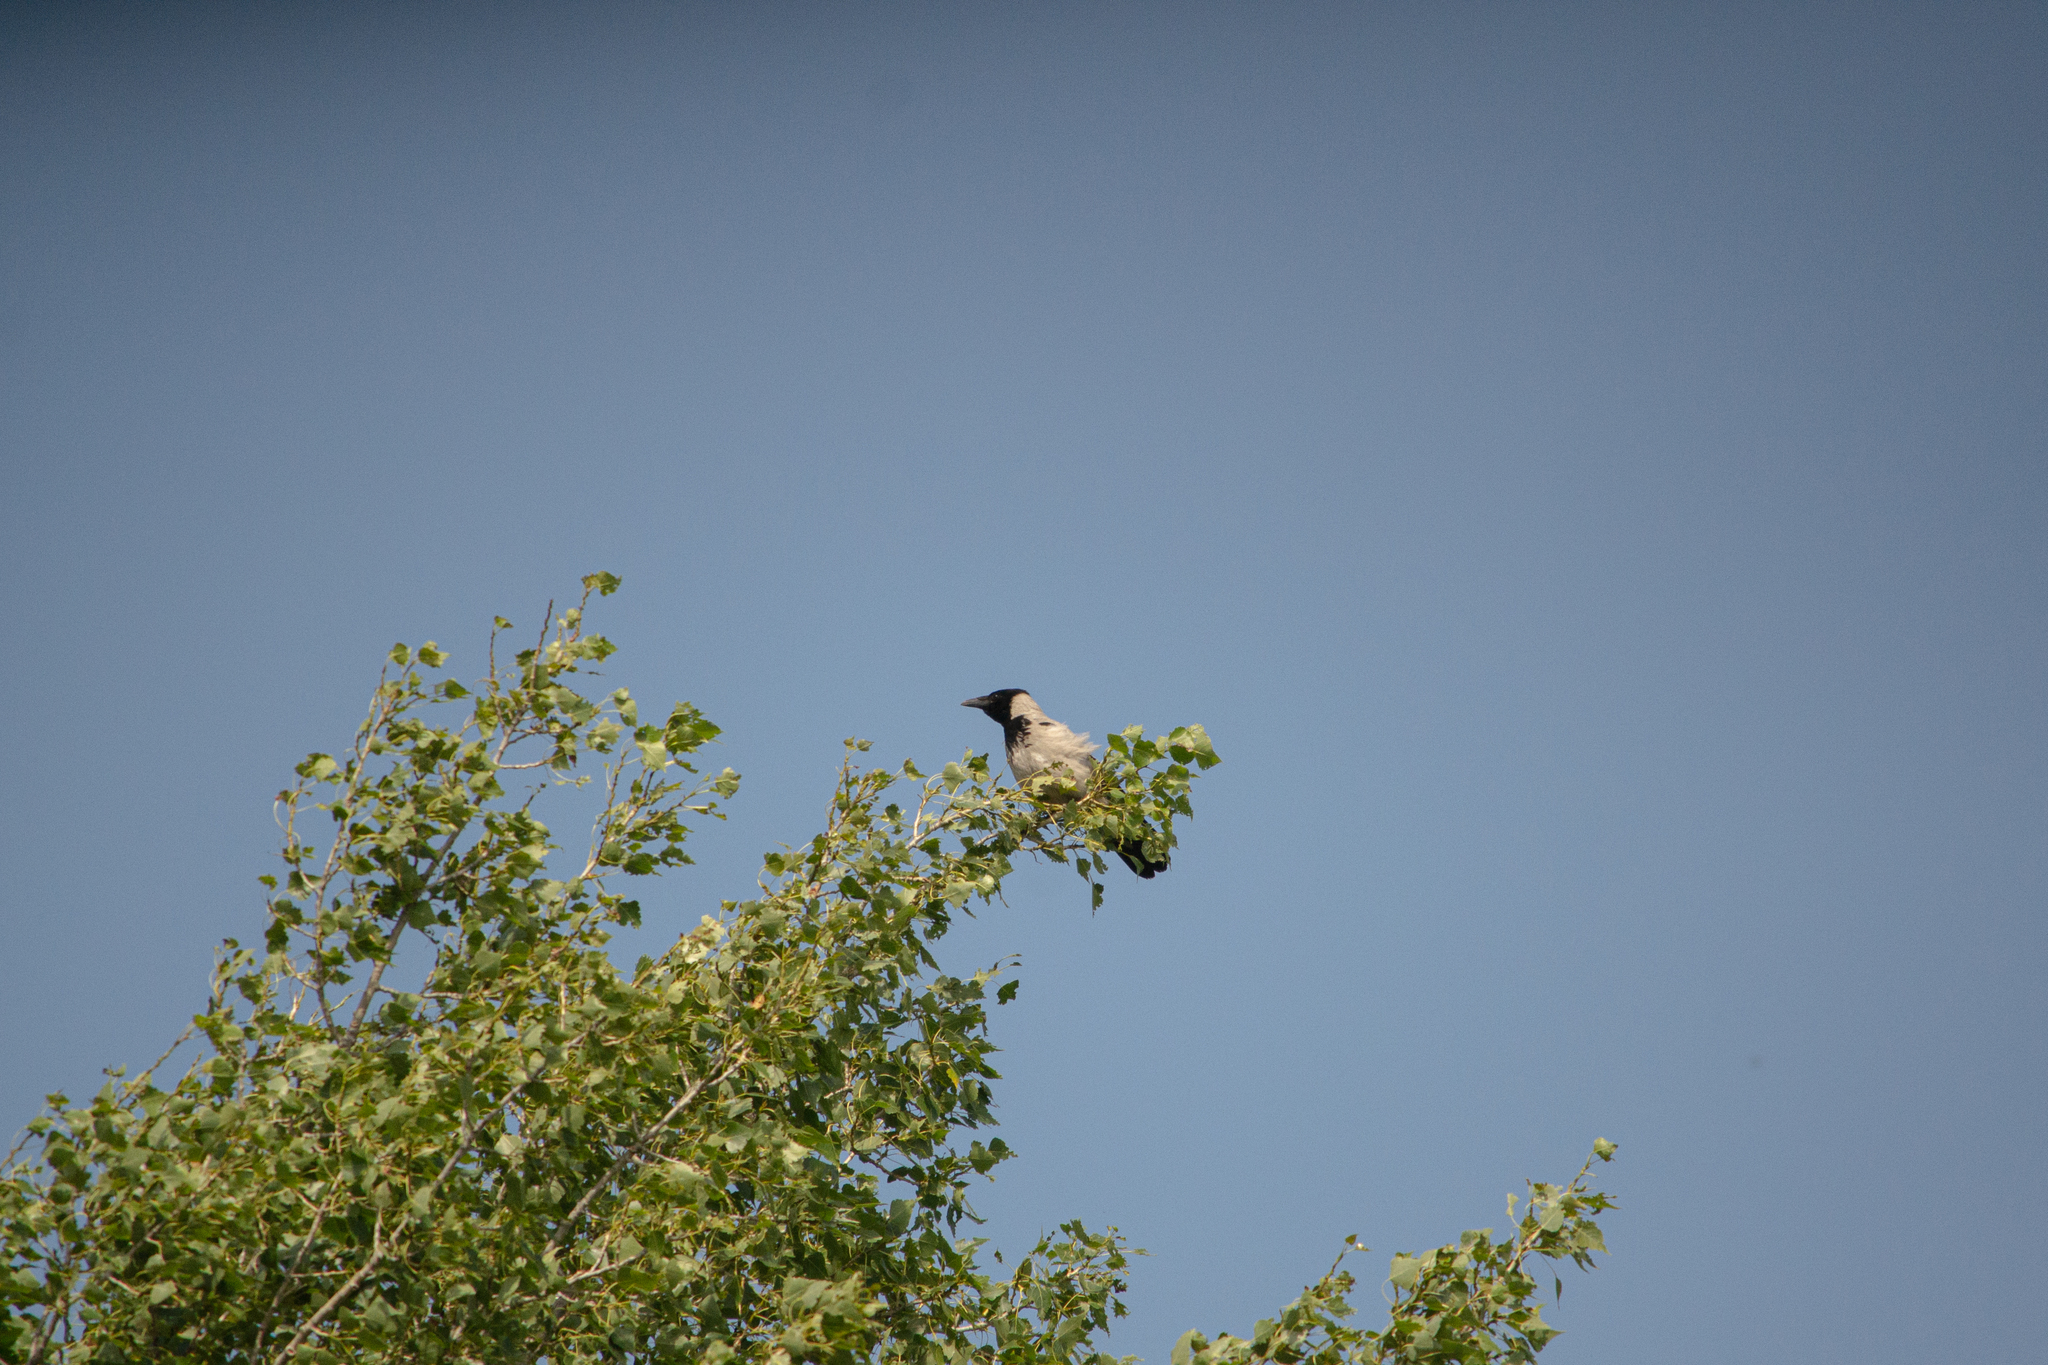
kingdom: Animalia
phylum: Chordata
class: Aves
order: Passeriformes
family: Corvidae
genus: Corvus
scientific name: Corvus cornix
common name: Hooded crow
